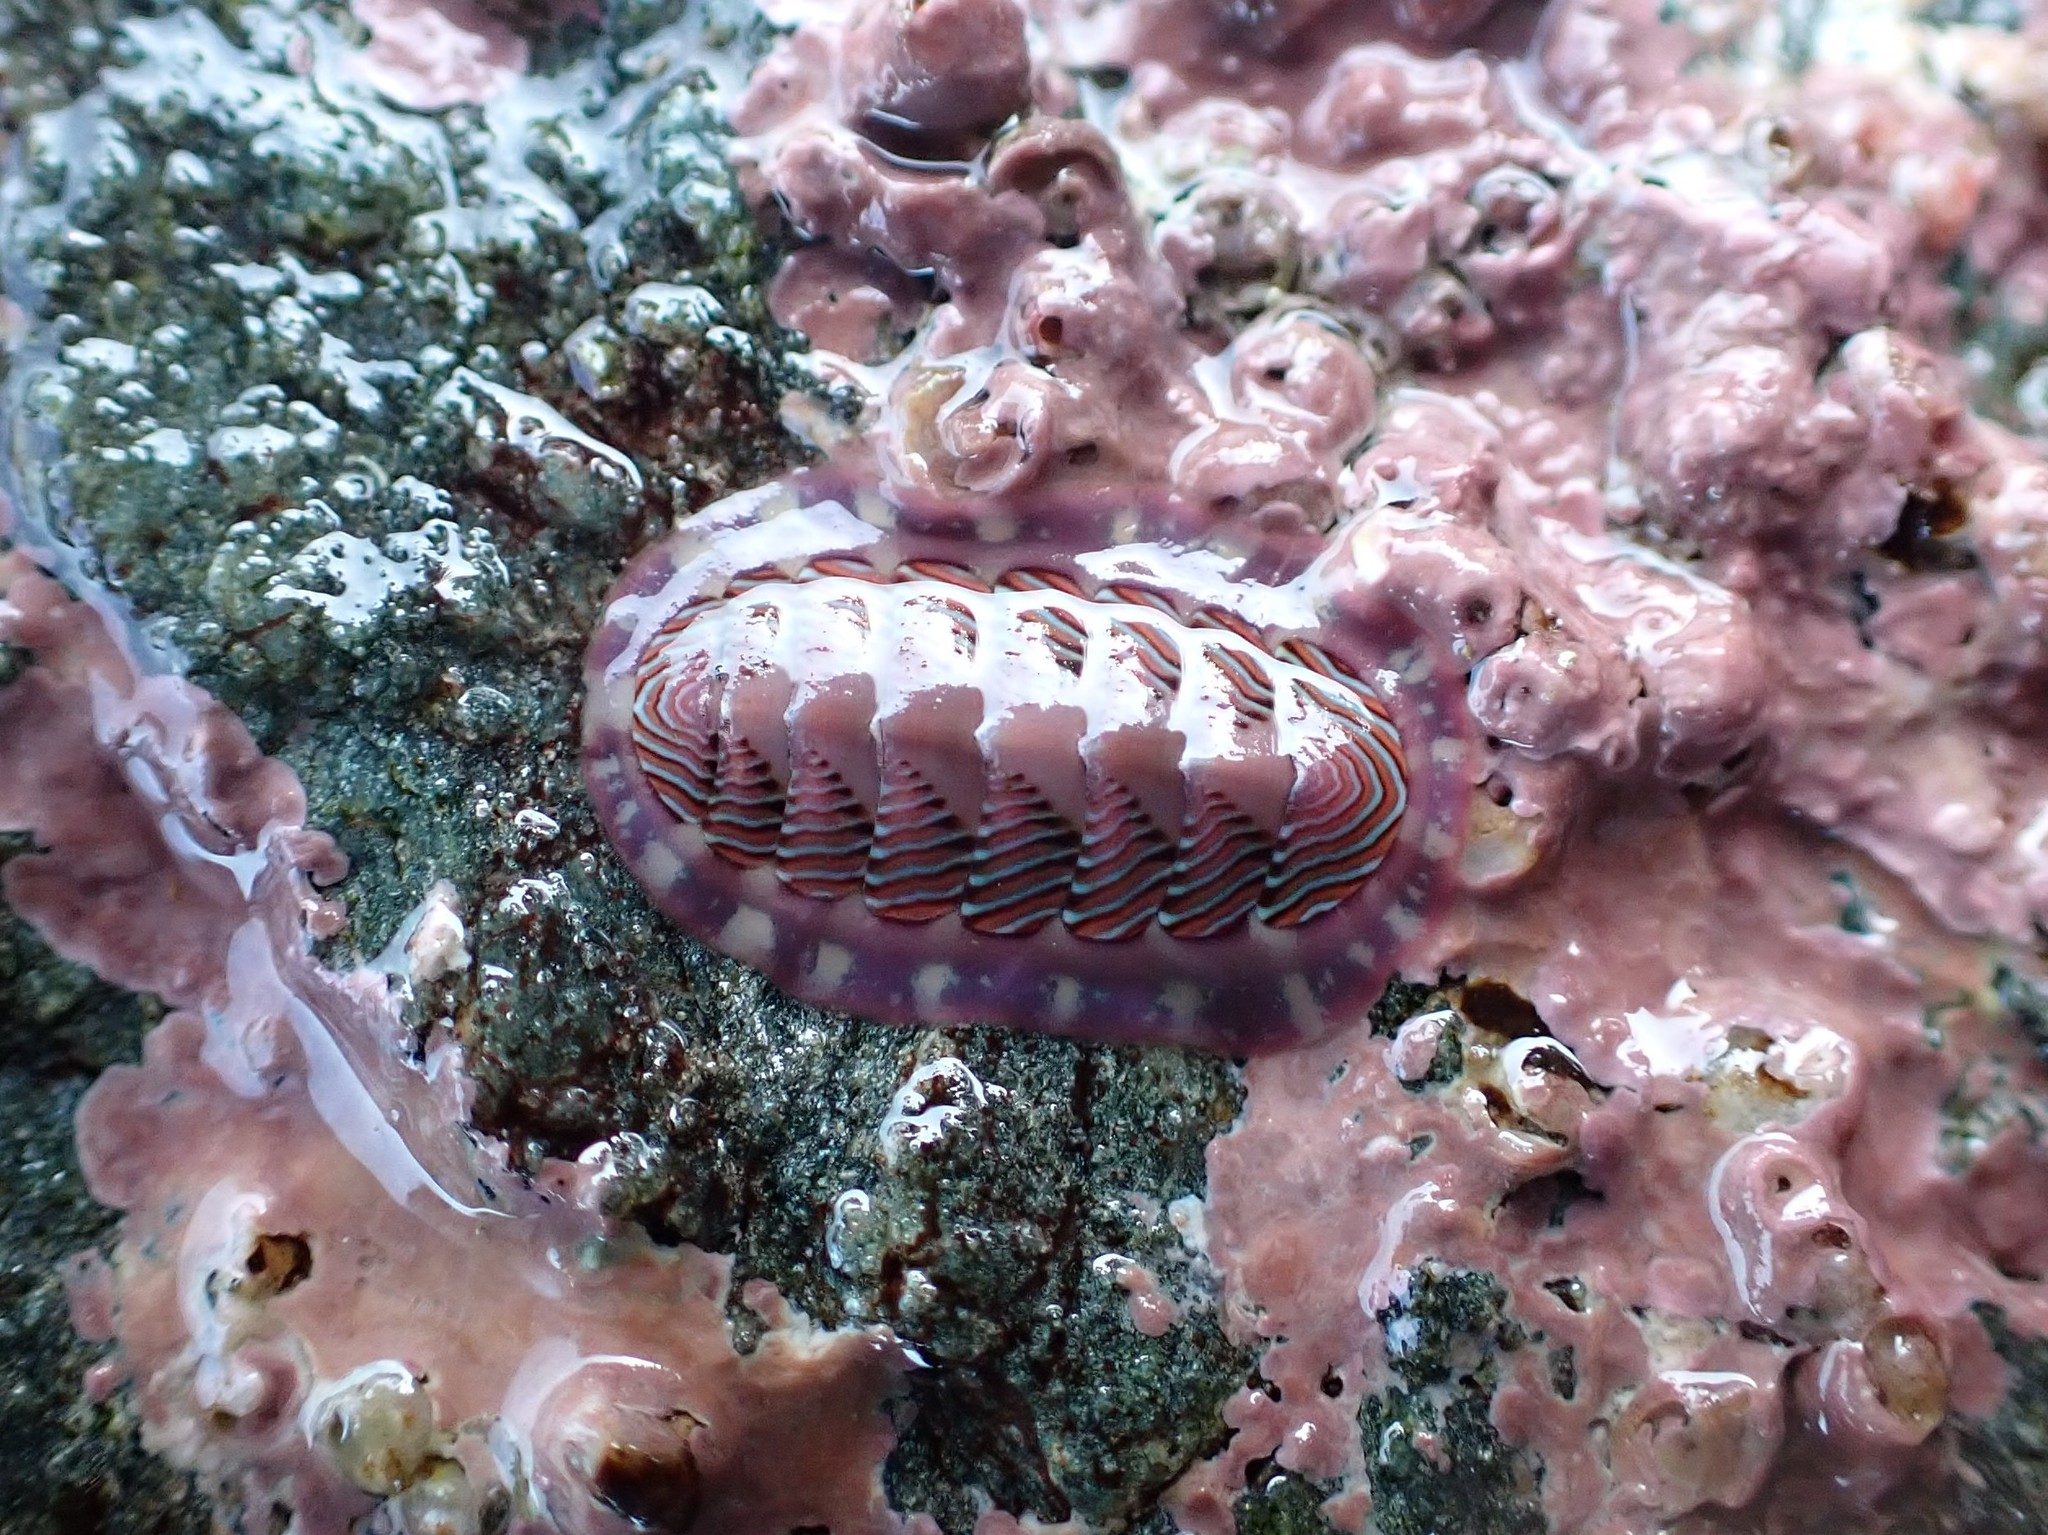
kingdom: Animalia
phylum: Mollusca
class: Polyplacophora
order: Chitonida
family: Tonicellidae
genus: Tonicella
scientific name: Tonicella lineata
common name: Lined chiton
